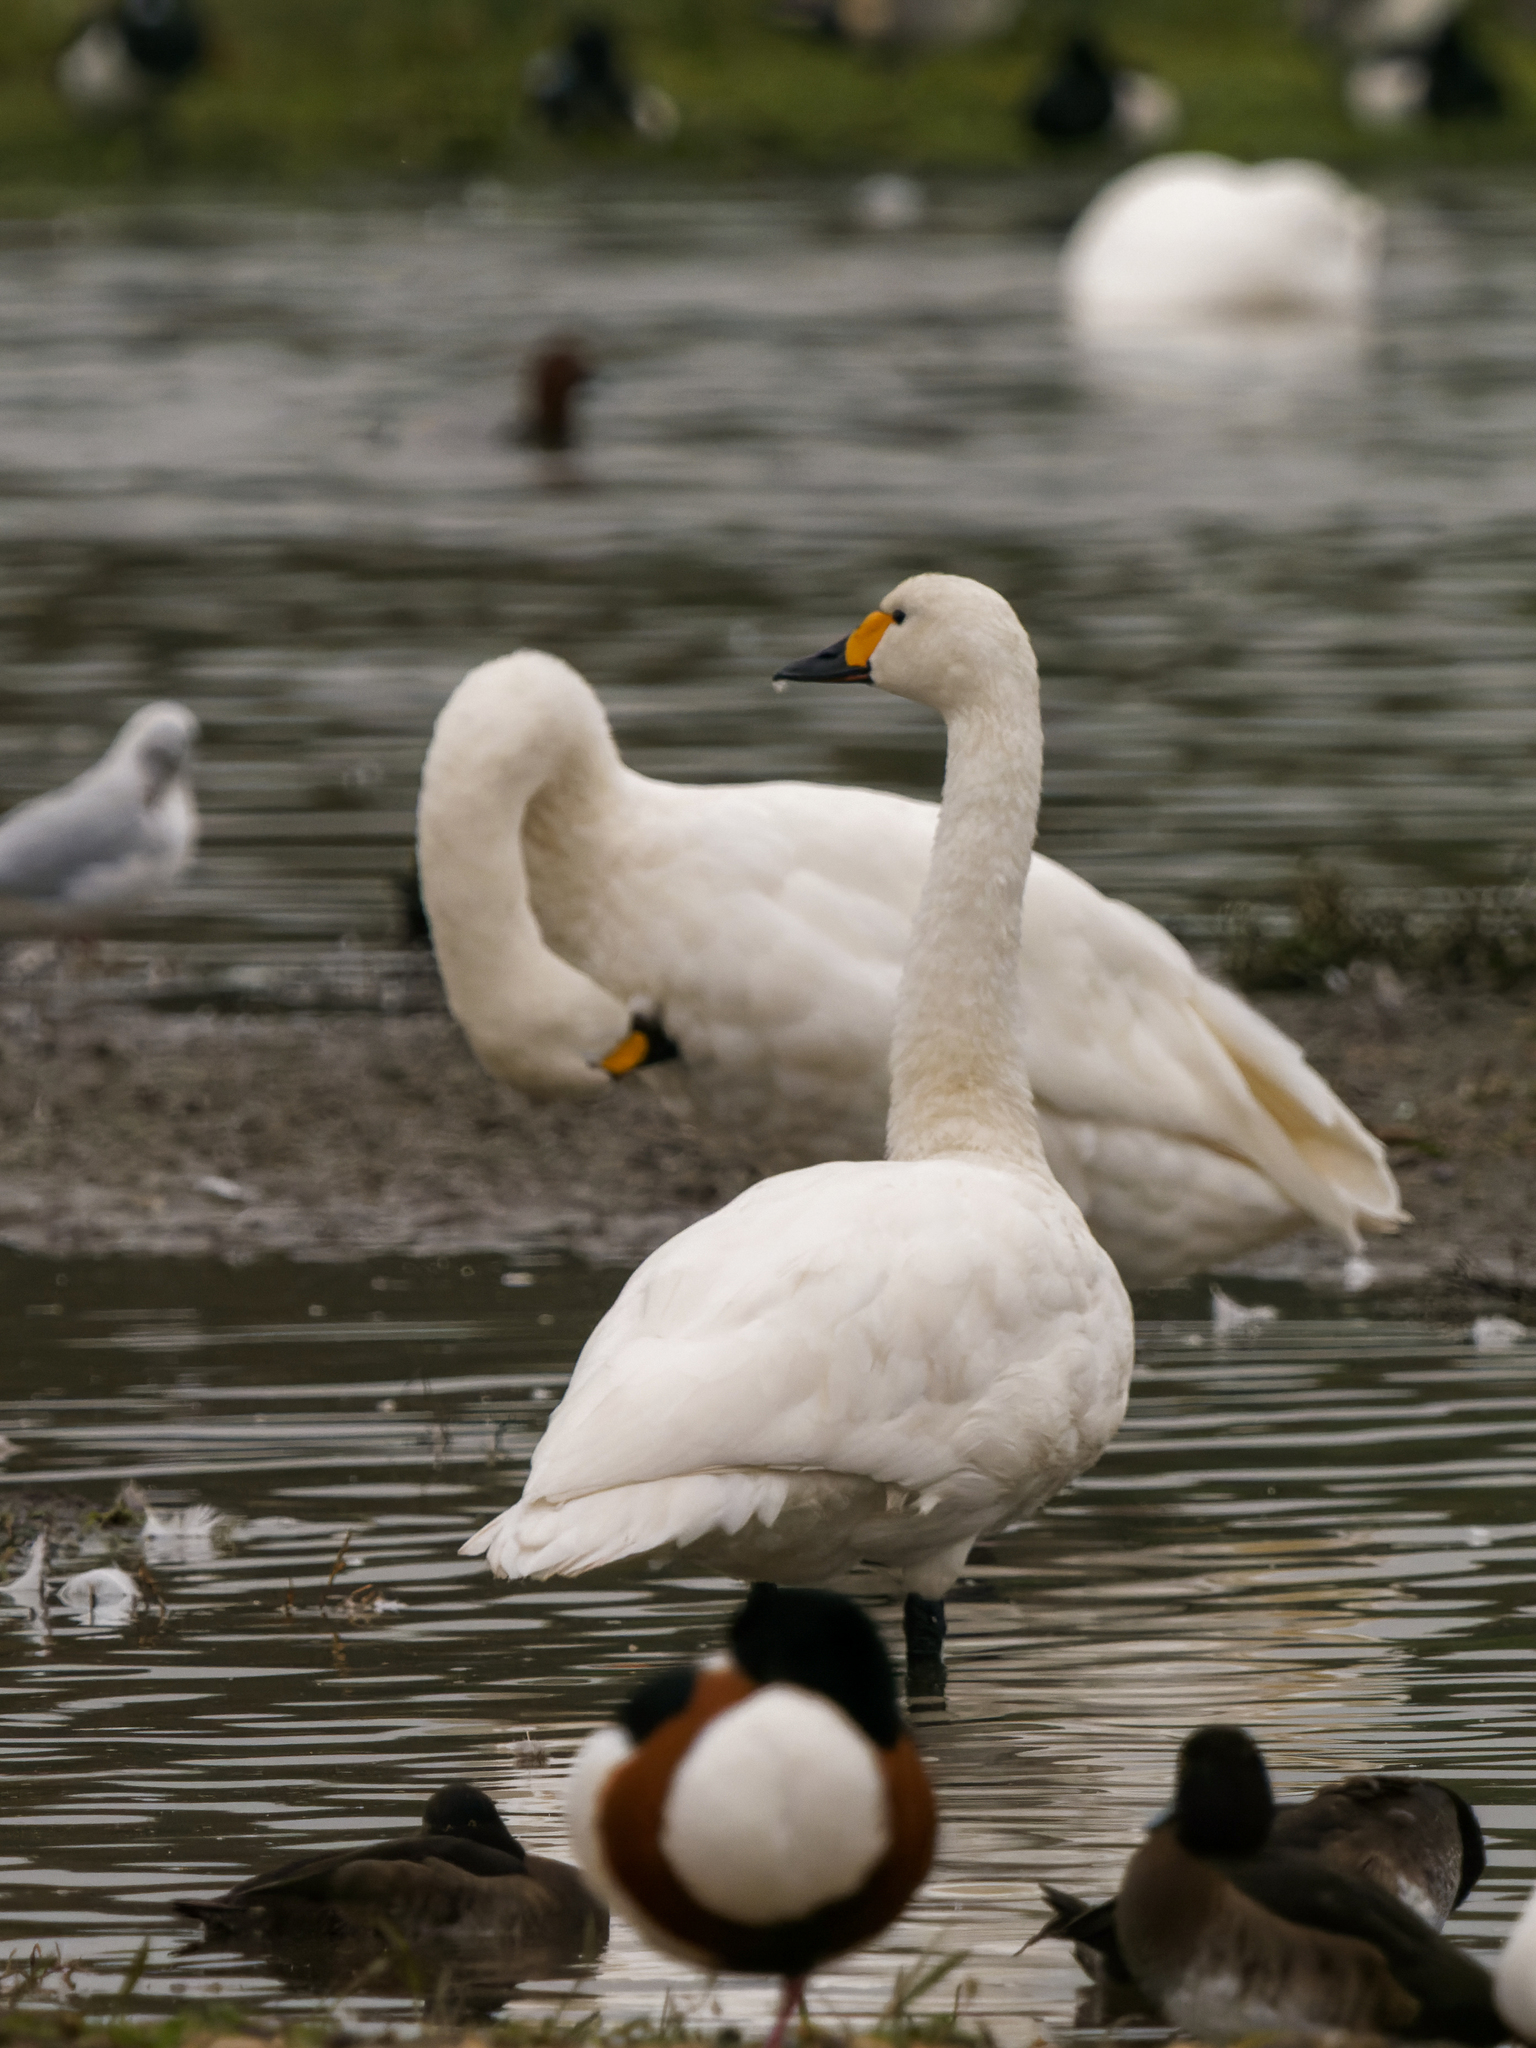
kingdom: Animalia
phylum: Chordata
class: Aves
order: Anseriformes
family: Anatidae
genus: Cygnus
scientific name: Cygnus columbianus
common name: Tundra swan
